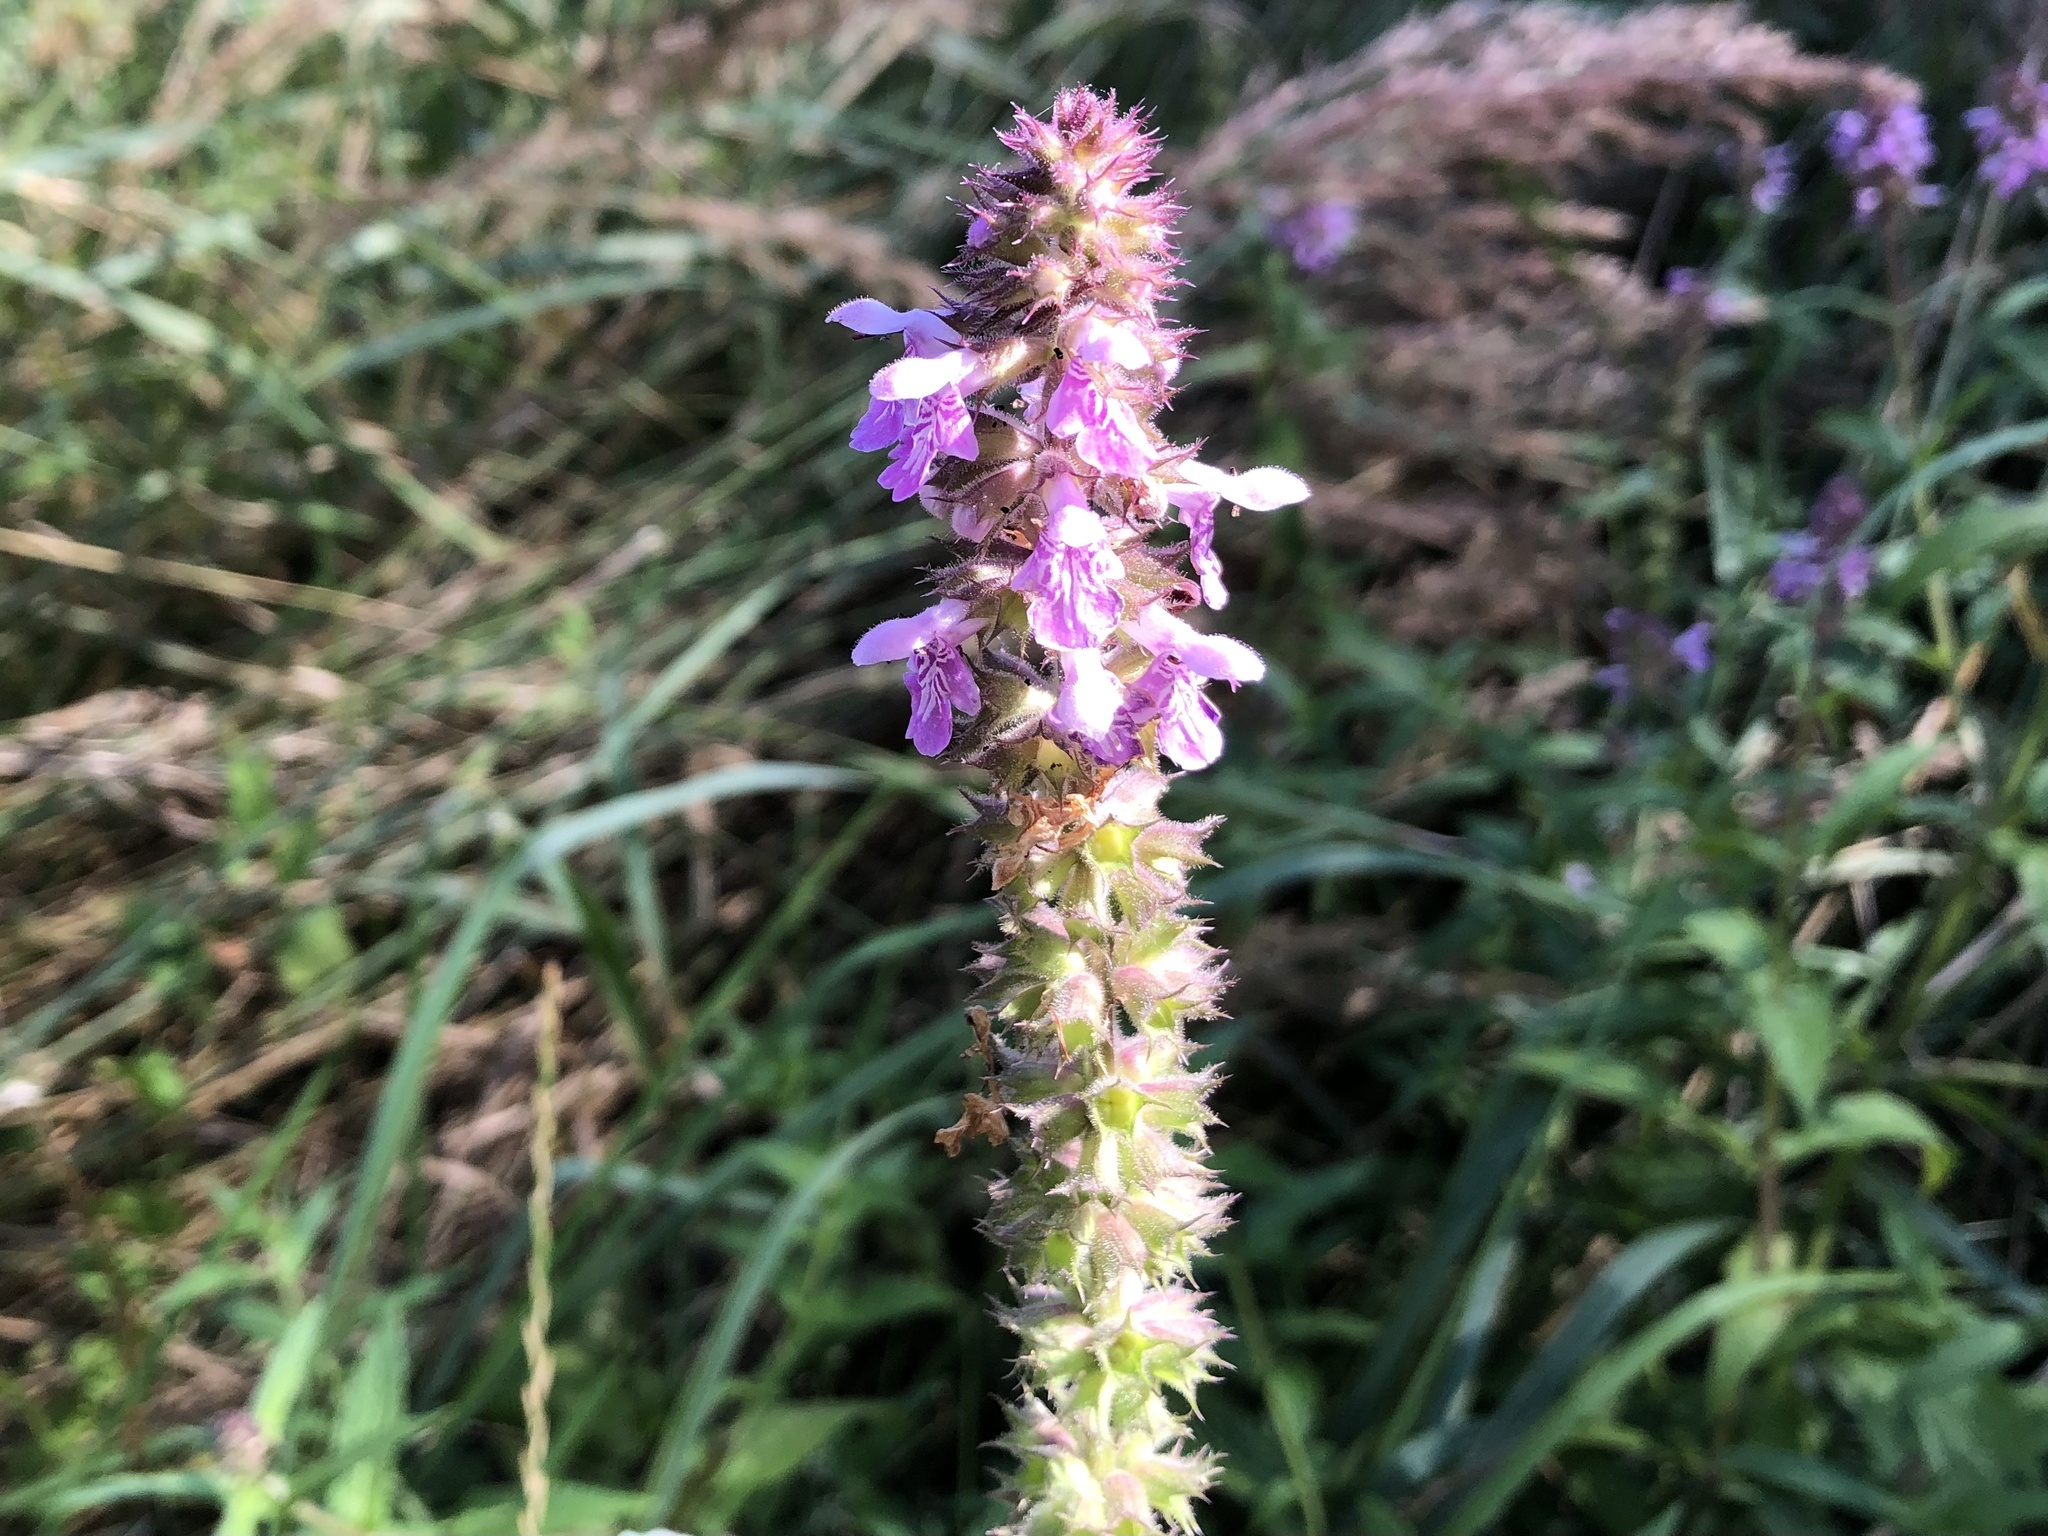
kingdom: Plantae
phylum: Tracheophyta
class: Magnoliopsida
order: Lamiales
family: Lamiaceae
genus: Stachys
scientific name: Stachys palustris
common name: Marsh woundwort
